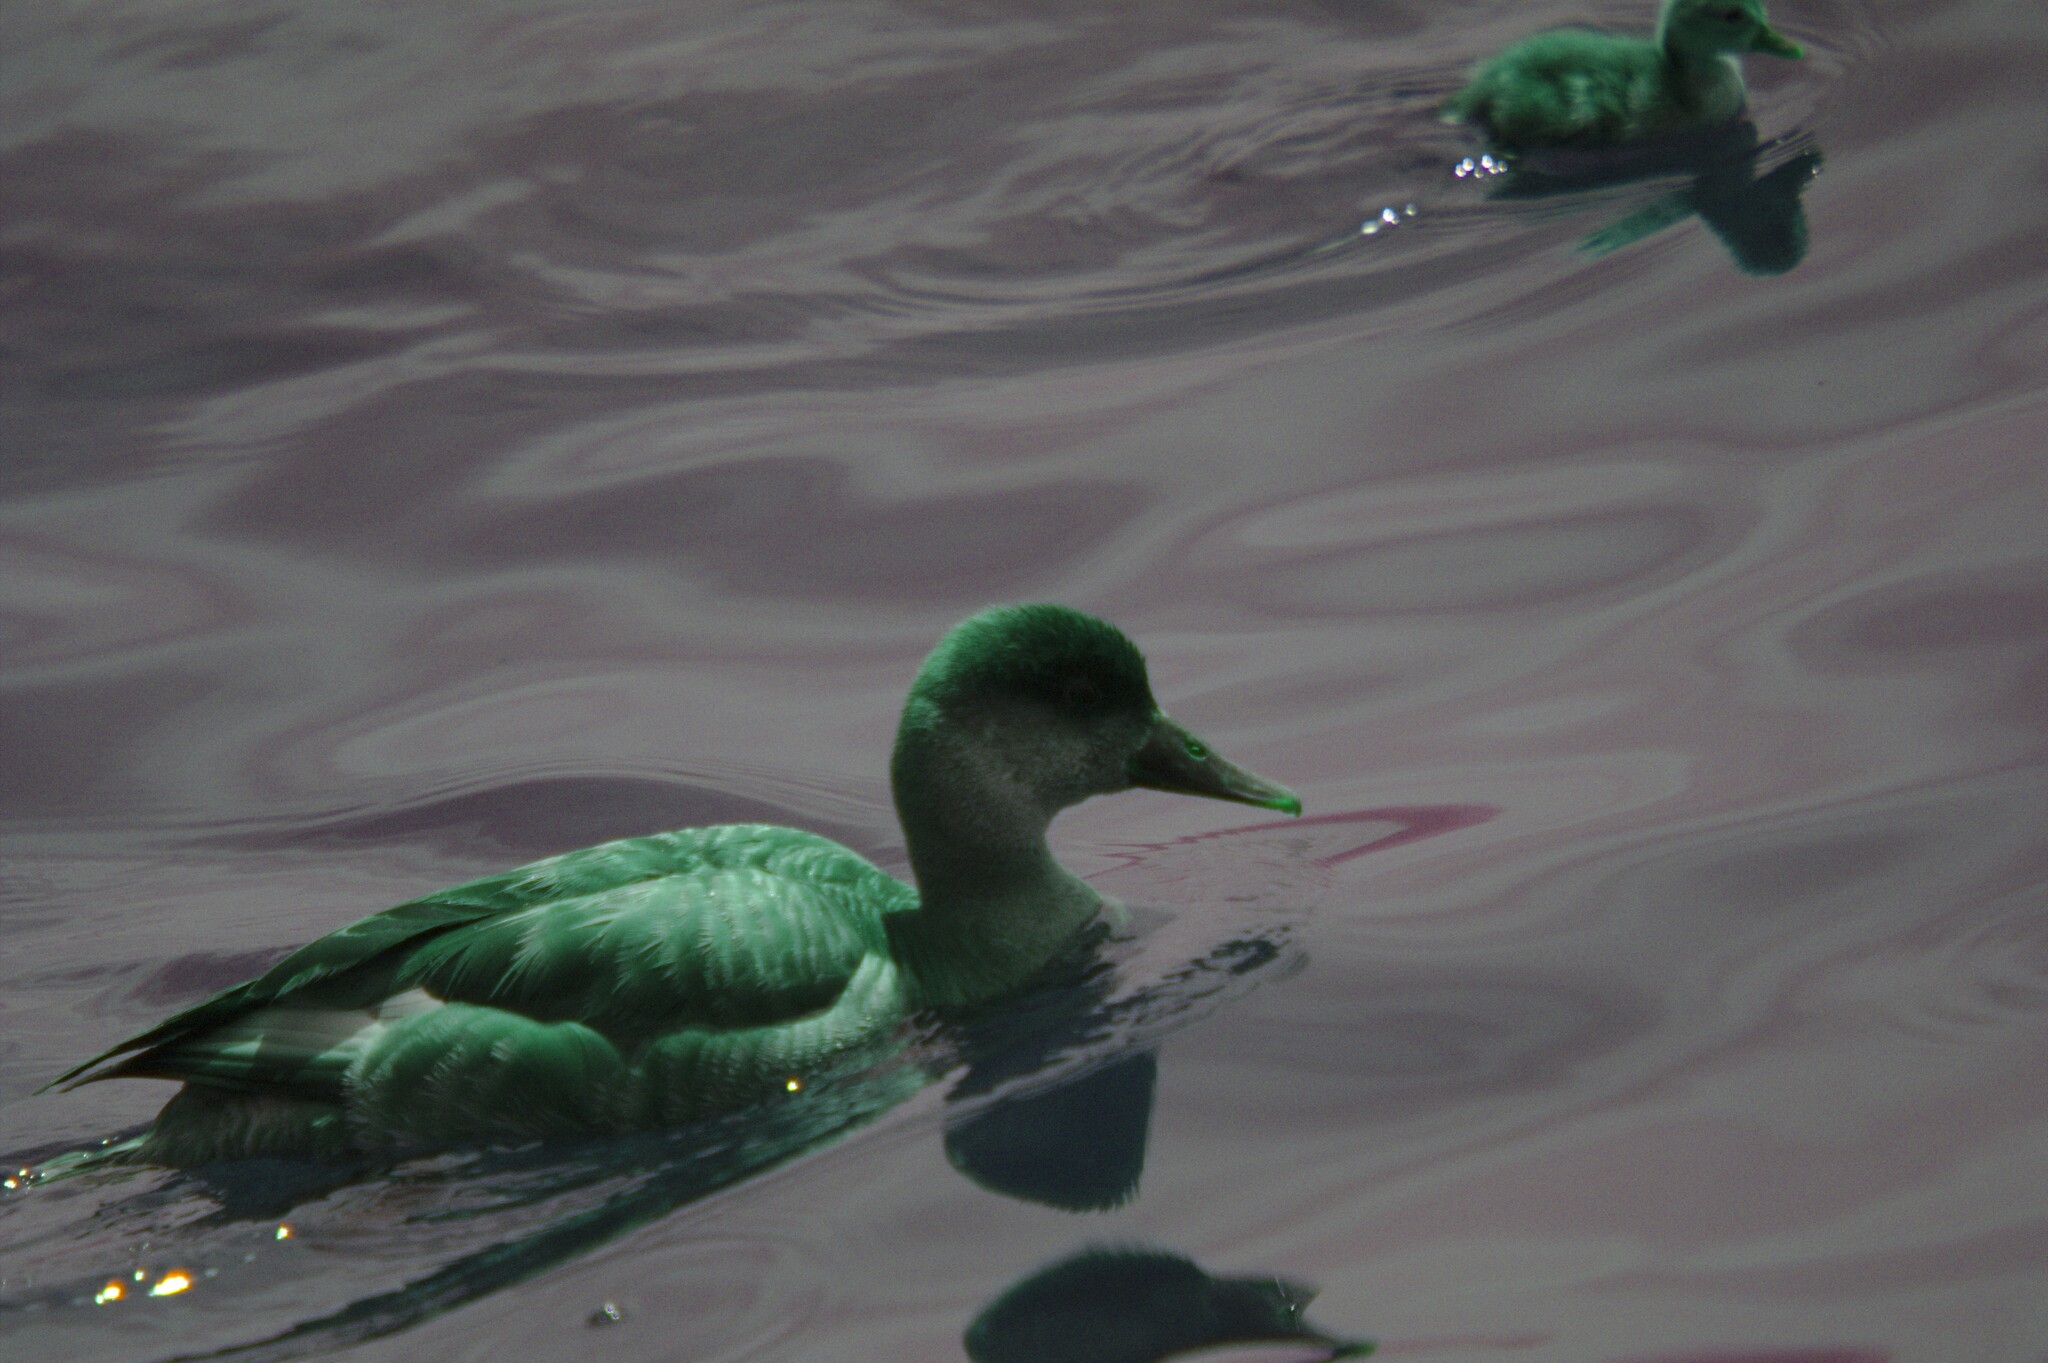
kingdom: Animalia
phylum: Chordata
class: Aves
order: Anseriformes
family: Anatidae
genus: Netta
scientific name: Netta rufina
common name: Red-crested pochard
